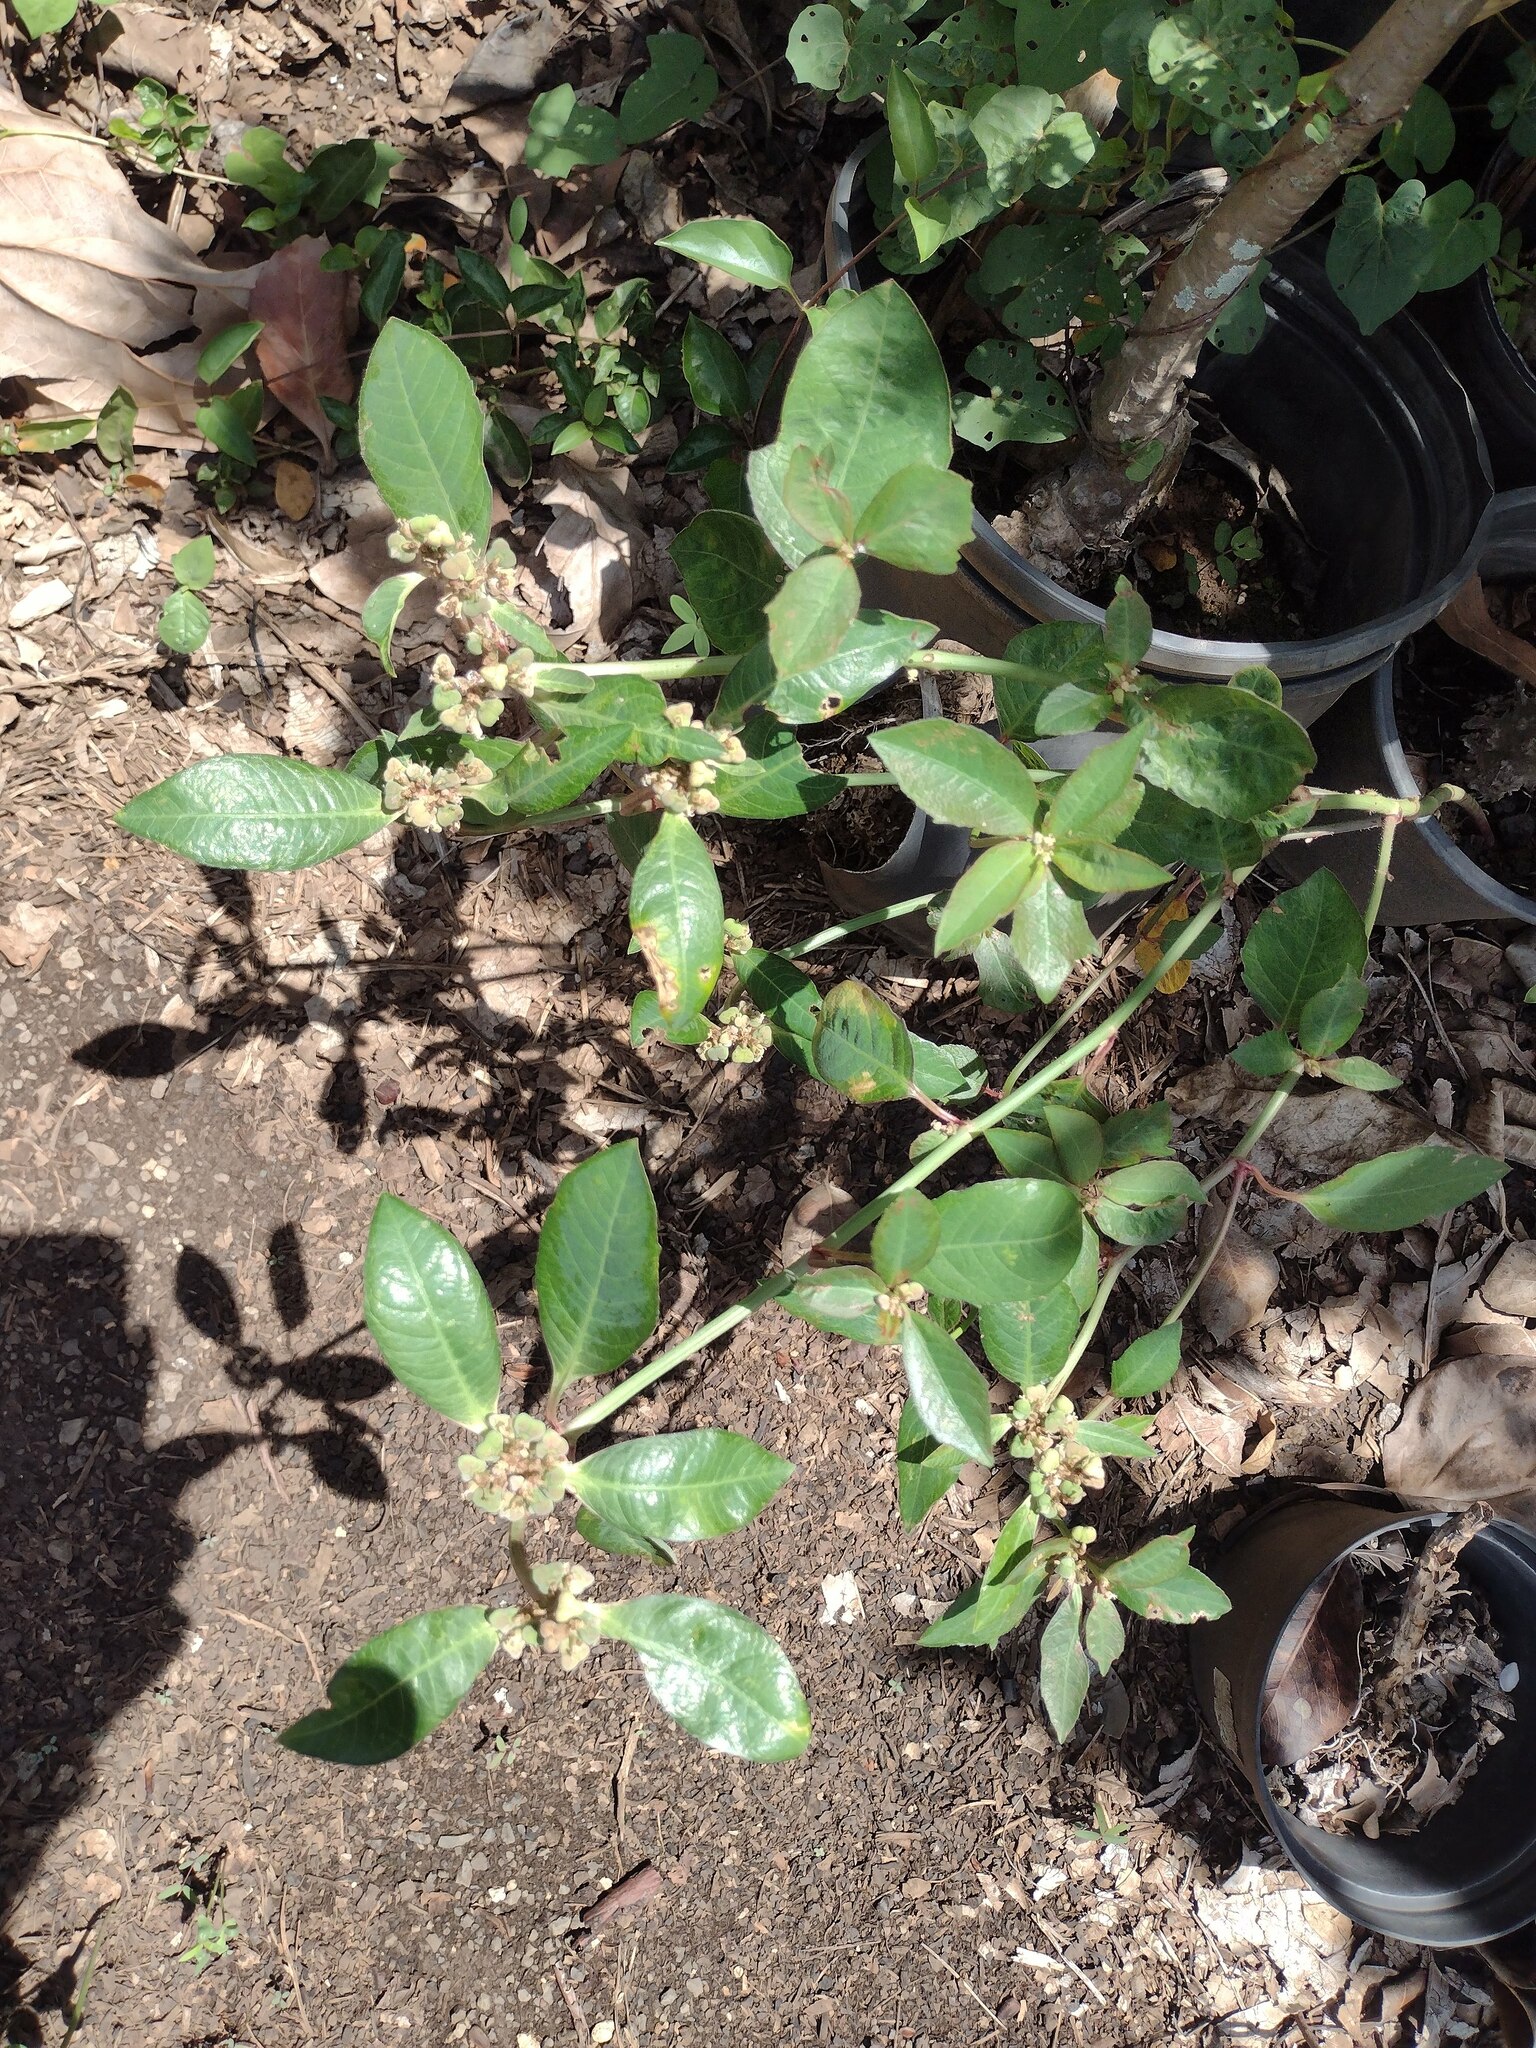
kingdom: Plantae
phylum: Tracheophyta
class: Magnoliopsida
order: Malpighiales
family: Euphorbiaceae
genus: Euphorbia
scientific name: Euphorbia heterophylla
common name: Mexican fireplant
